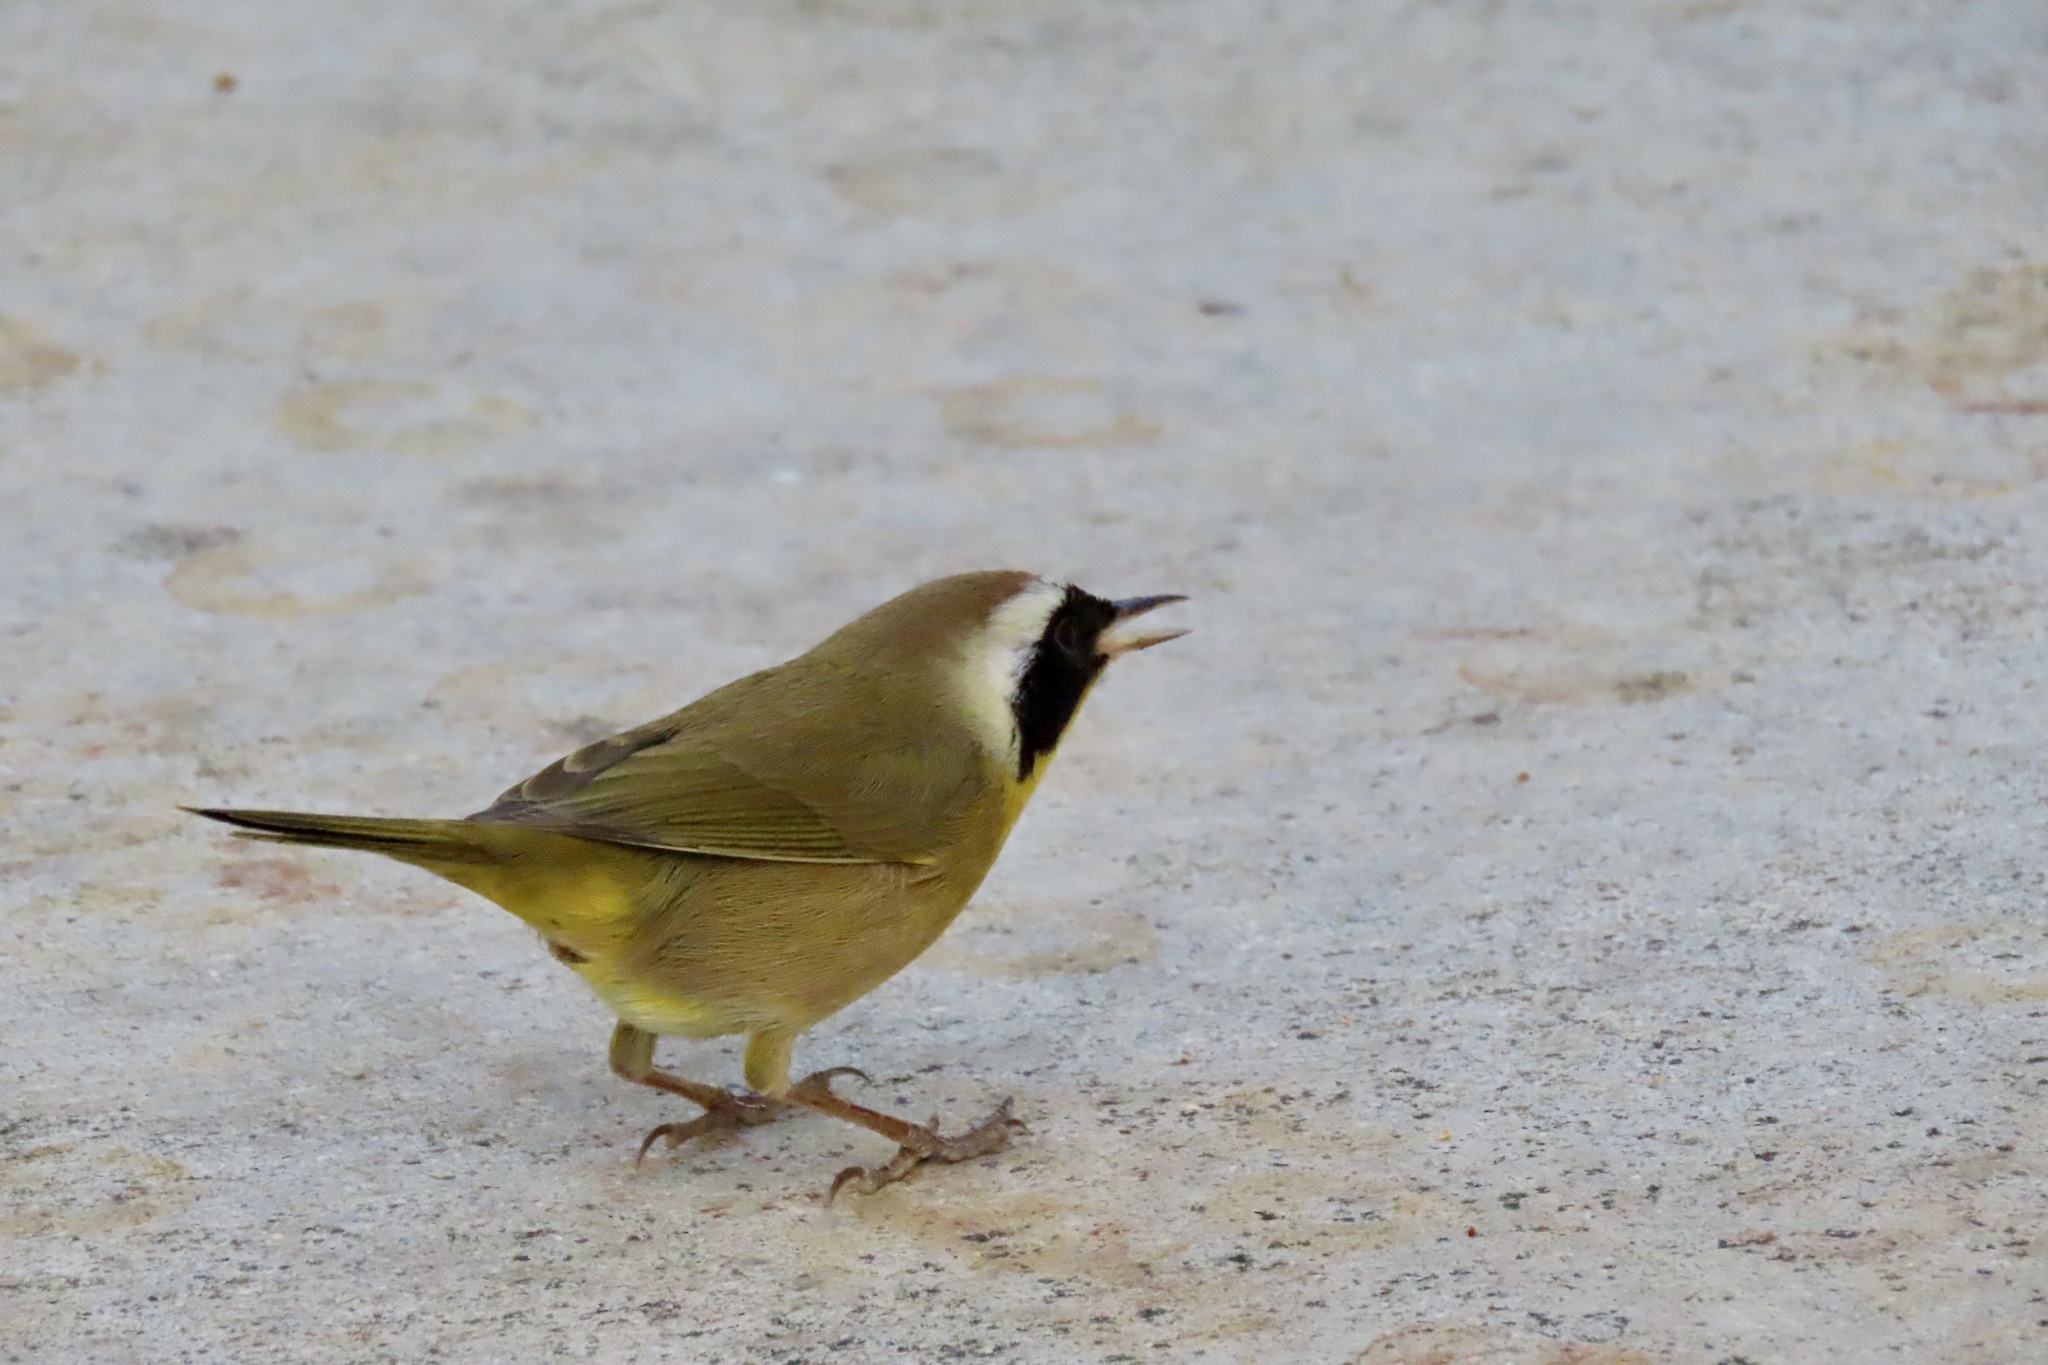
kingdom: Animalia
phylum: Chordata
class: Aves
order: Passeriformes
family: Parulidae
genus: Geothlypis
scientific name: Geothlypis trichas
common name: Common yellowthroat
